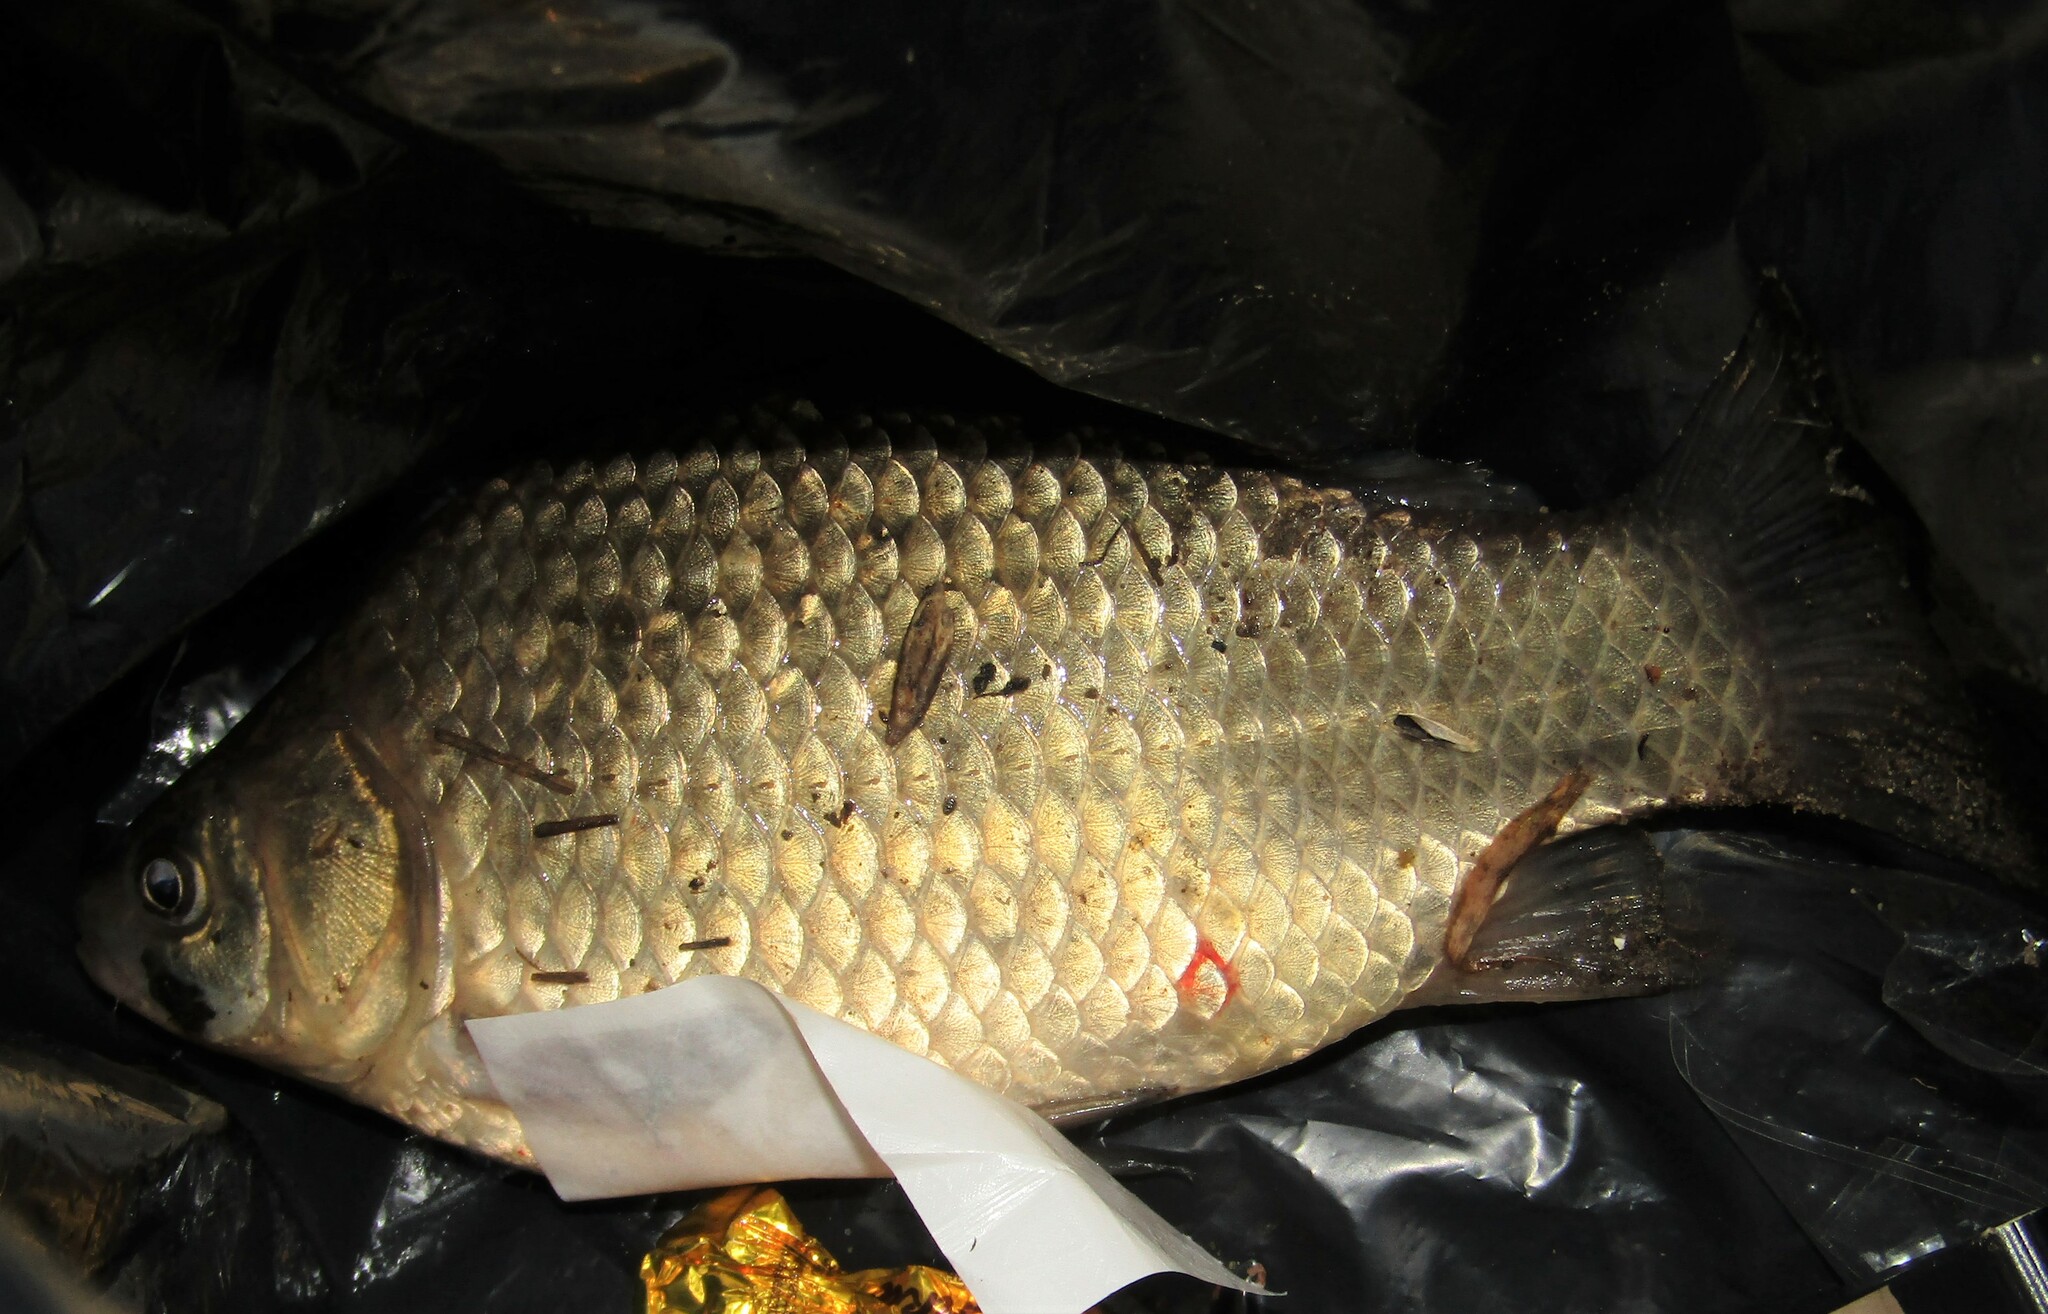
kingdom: Animalia
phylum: Chordata
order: Cypriniformes
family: Cyprinidae
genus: Carassius
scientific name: Carassius gibelio
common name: Prussian carp
